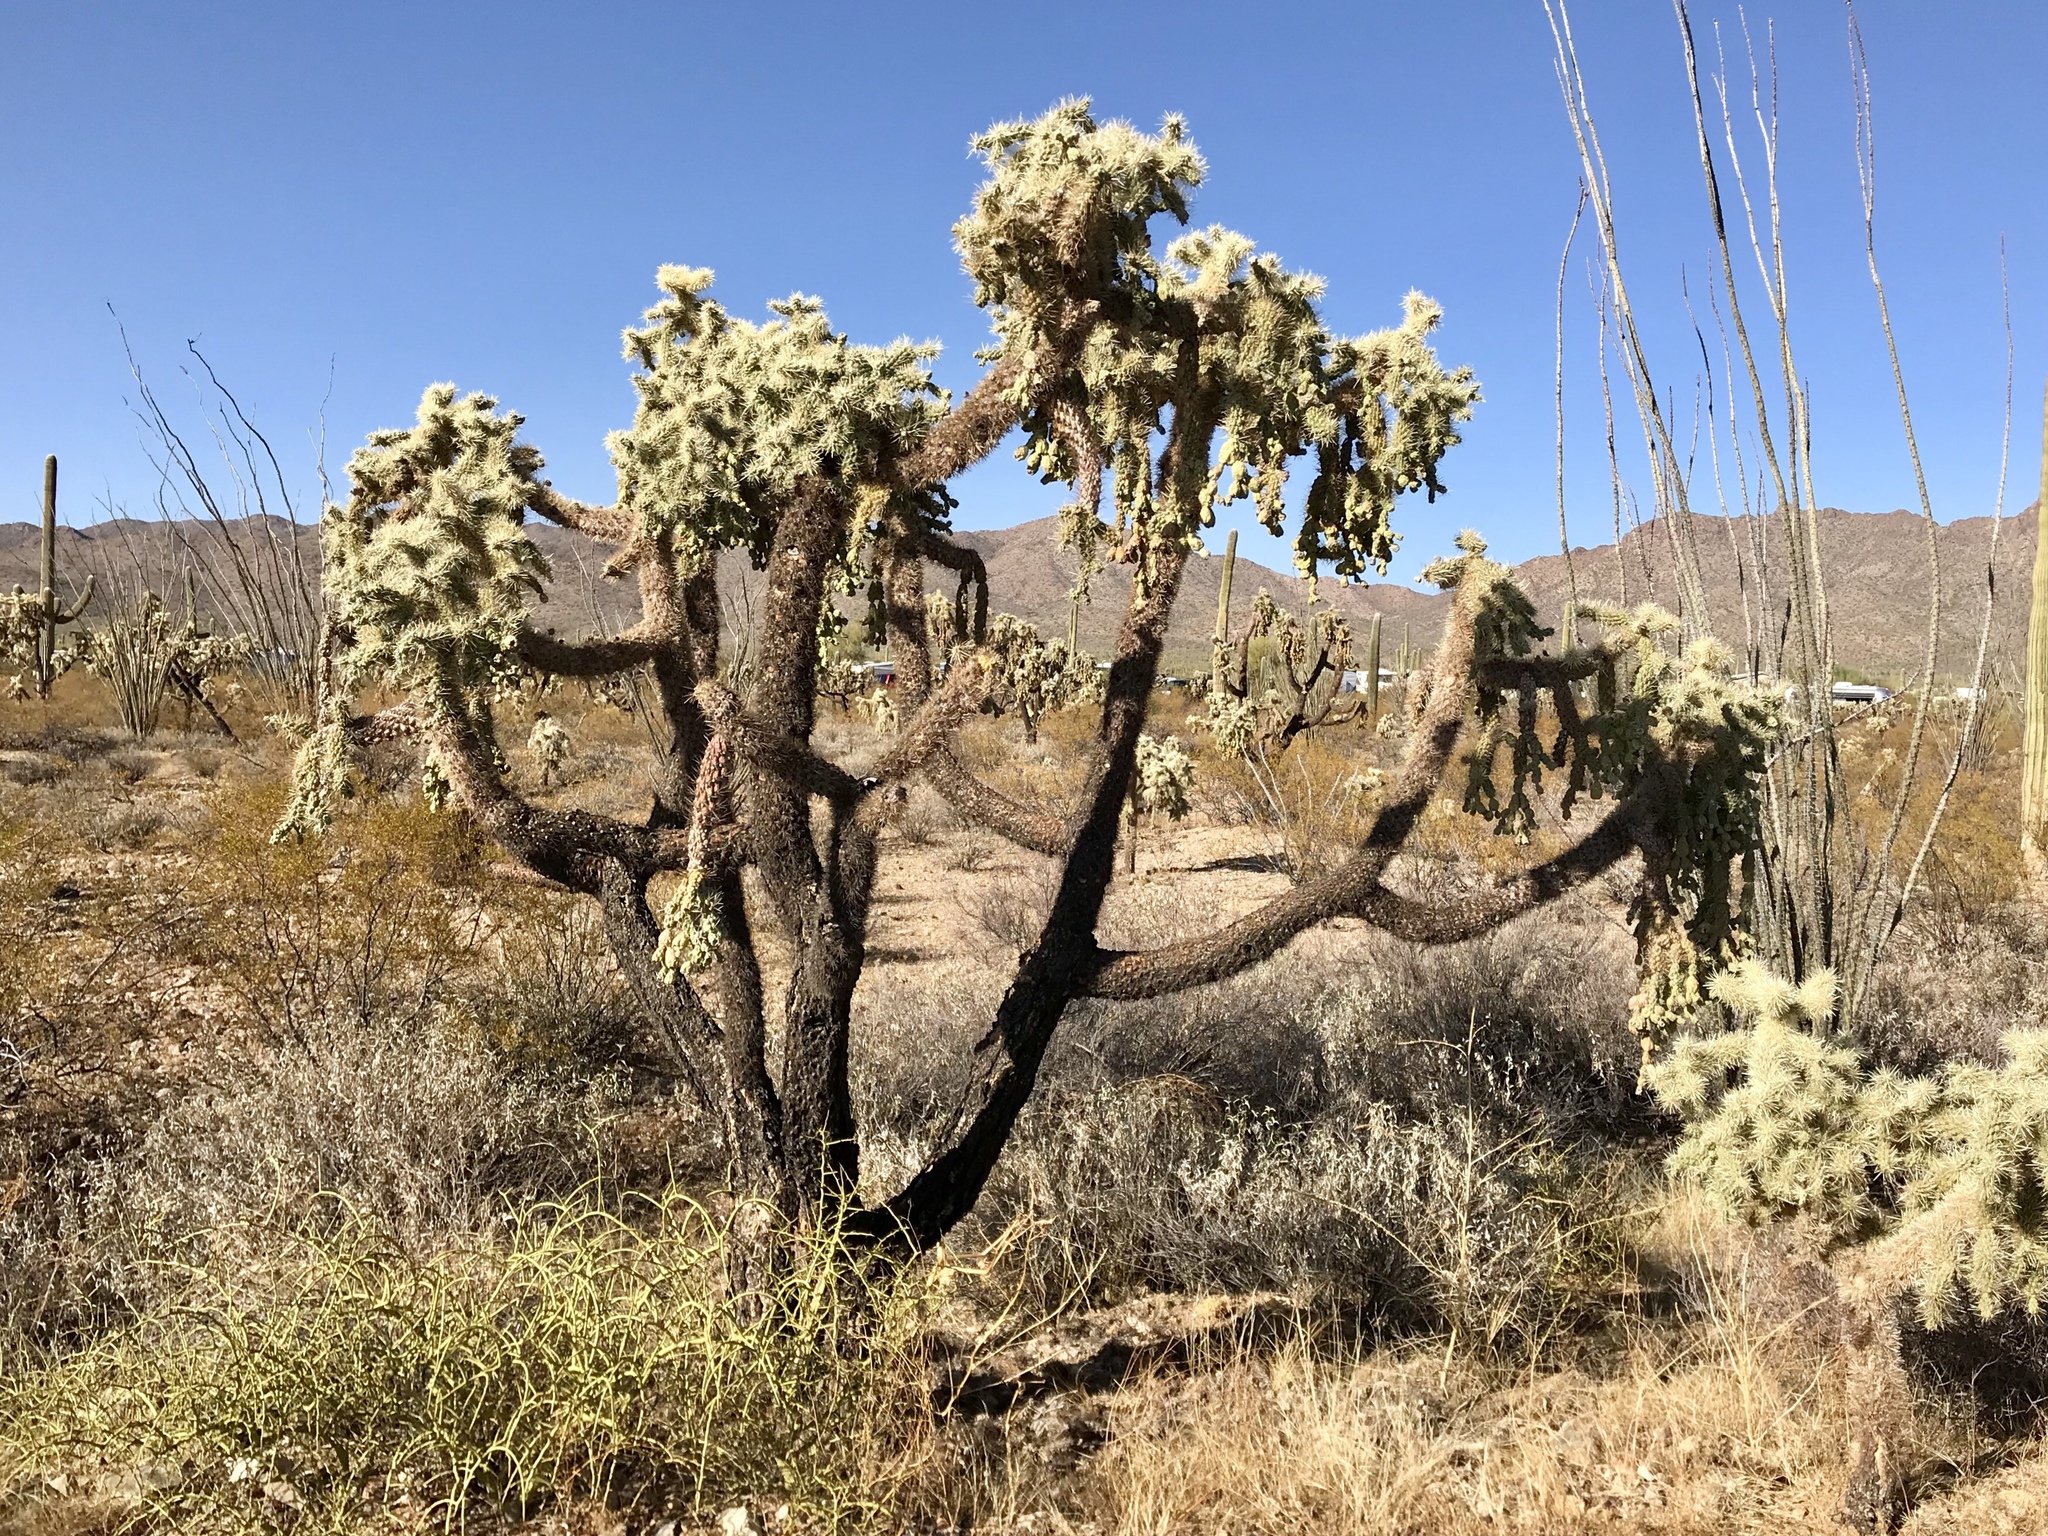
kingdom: Plantae
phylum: Tracheophyta
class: Magnoliopsida
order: Caryophyllales
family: Cactaceae
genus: Cylindropuntia
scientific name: Cylindropuntia fulgida
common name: Jumping cholla
